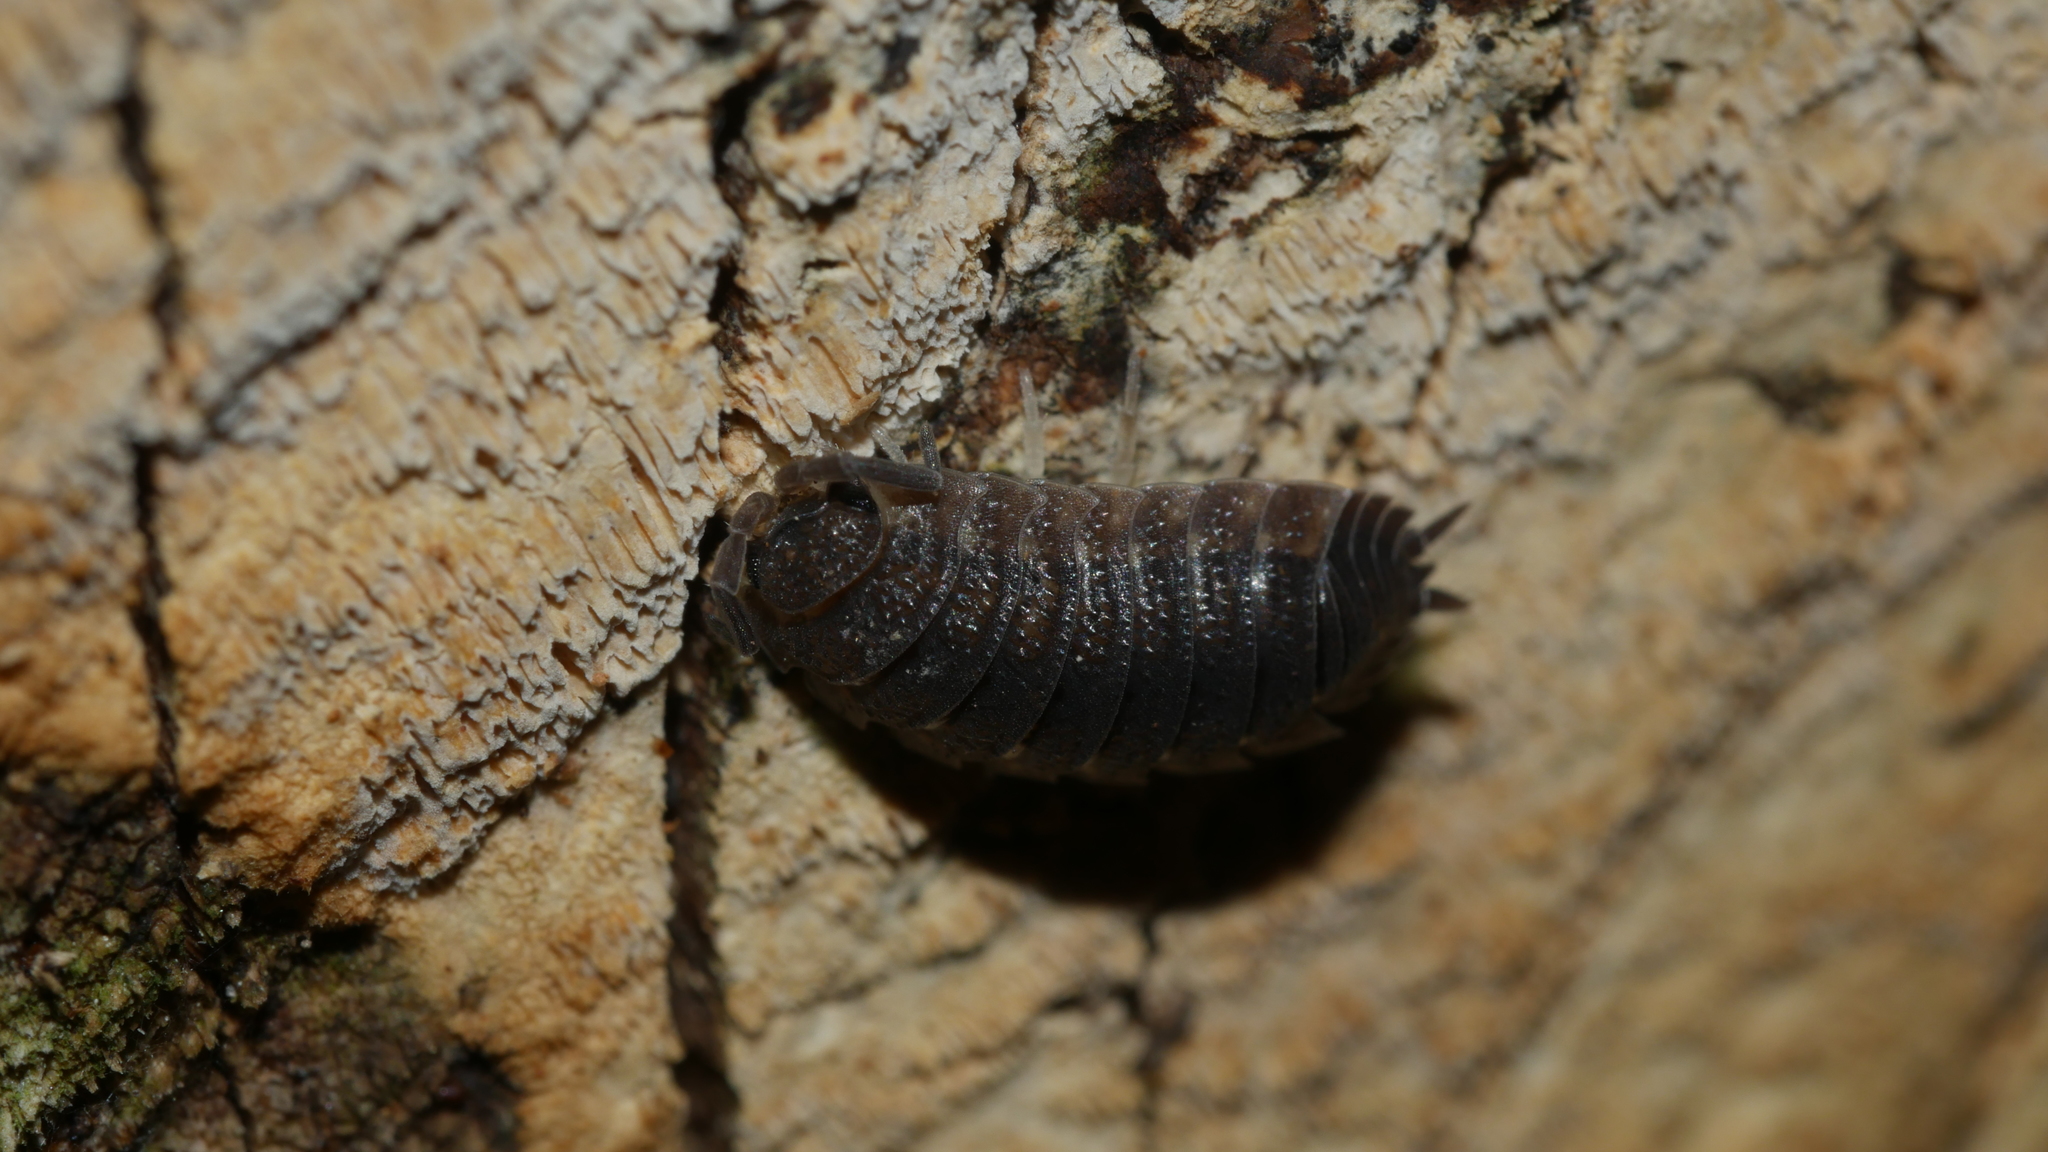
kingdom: Animalia
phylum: Arthropoda
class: Malacostraca
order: Isopoda
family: Porcellionidae
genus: Porcellio
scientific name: Porcellio scaber
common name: Common rough woodlouse
